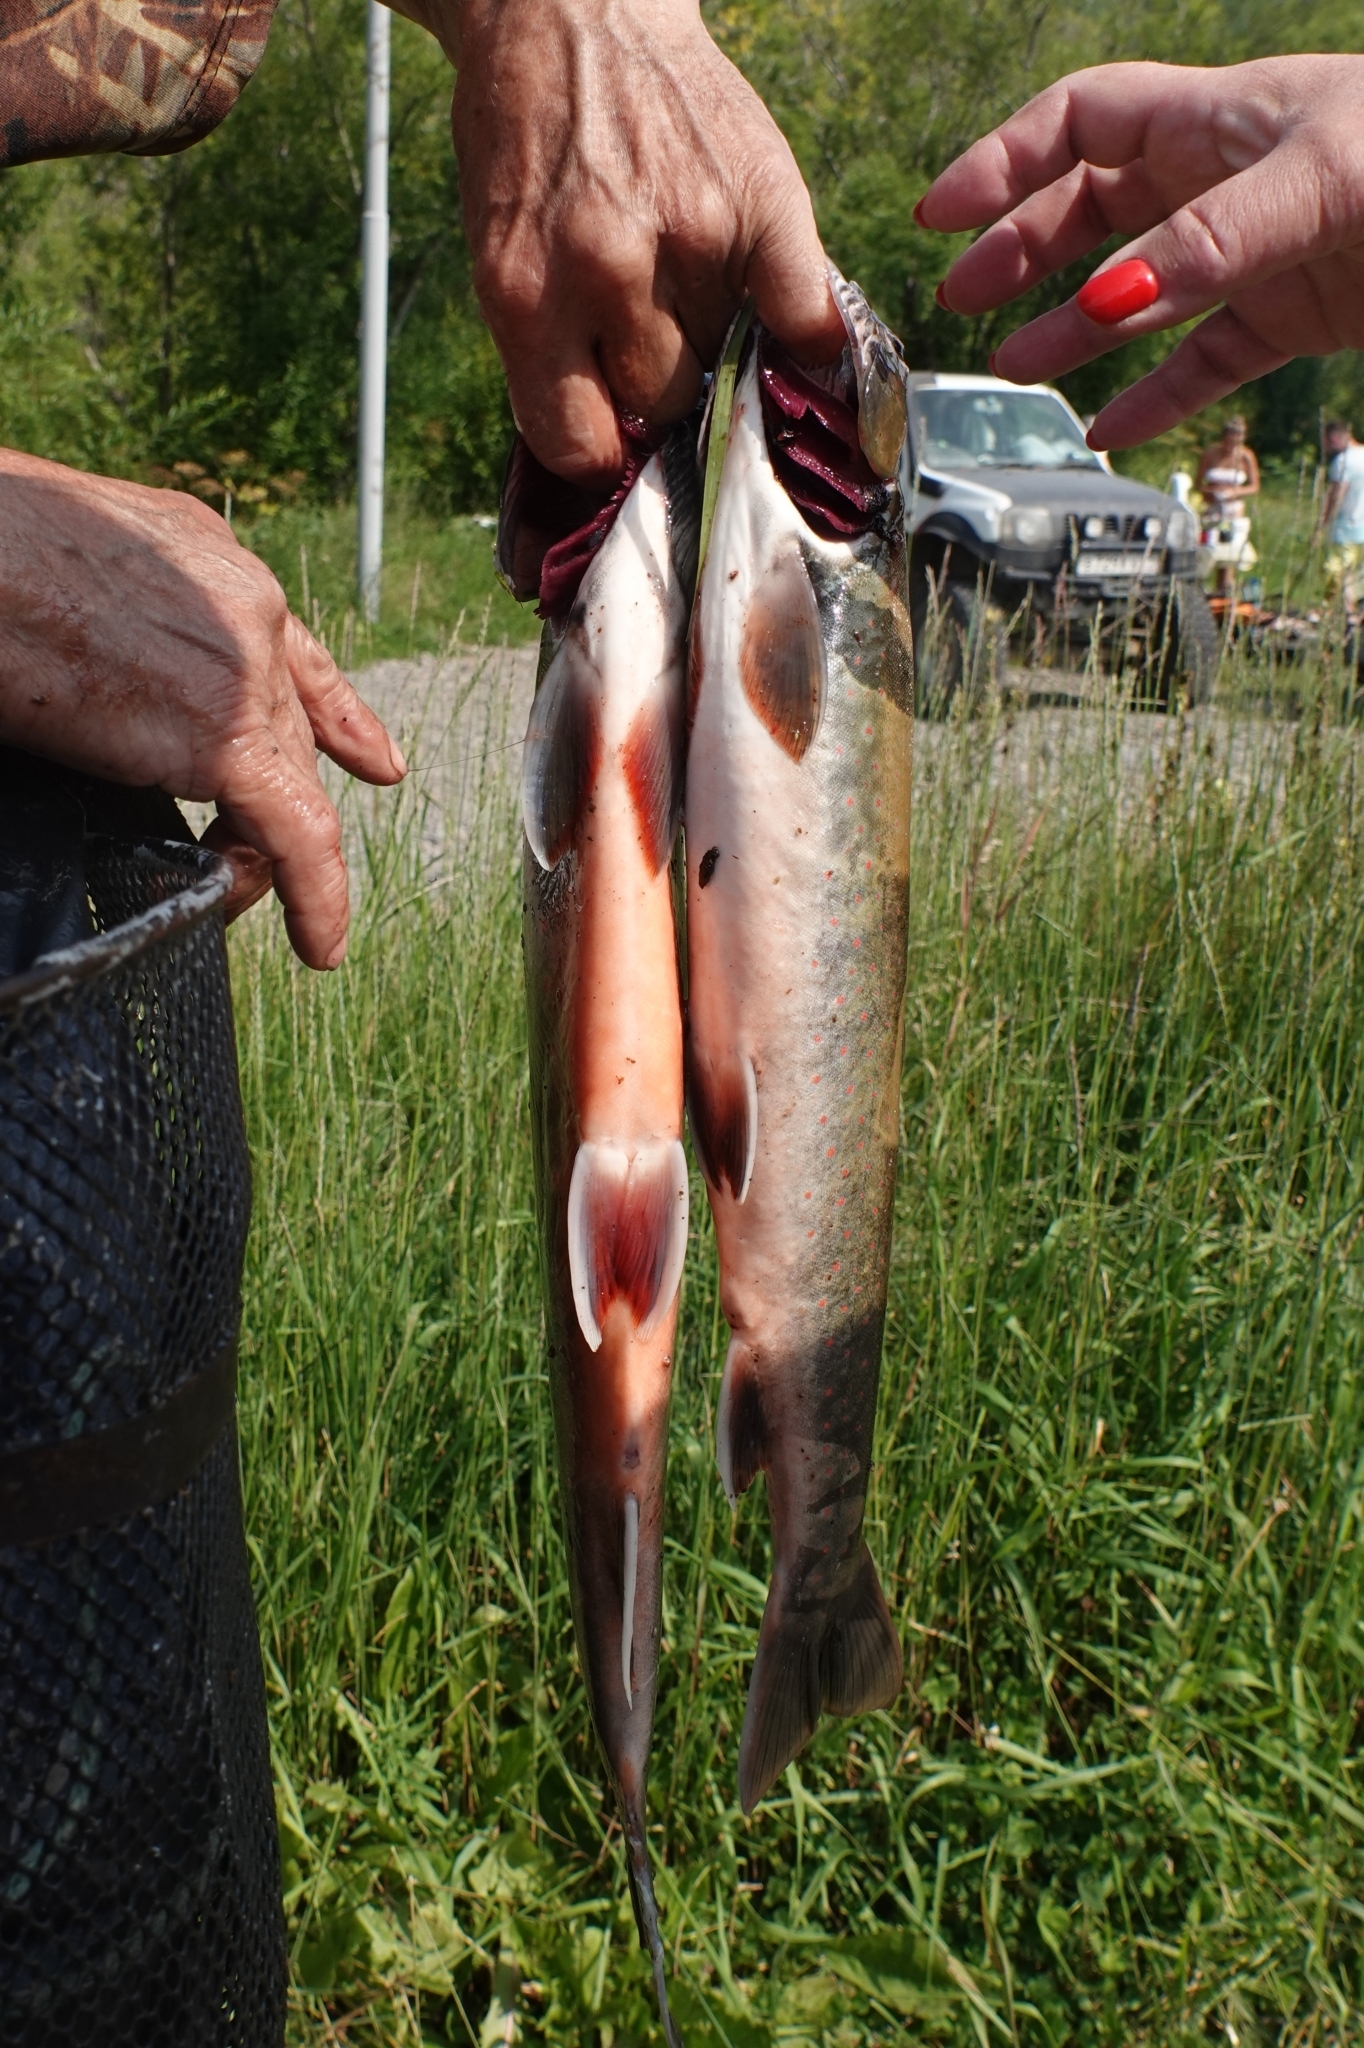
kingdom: Animalia
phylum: Chordata
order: Salmoniformes
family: Salmonidae
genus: Salvelinus
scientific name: Salvelinus malma
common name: Dolly varden charr
